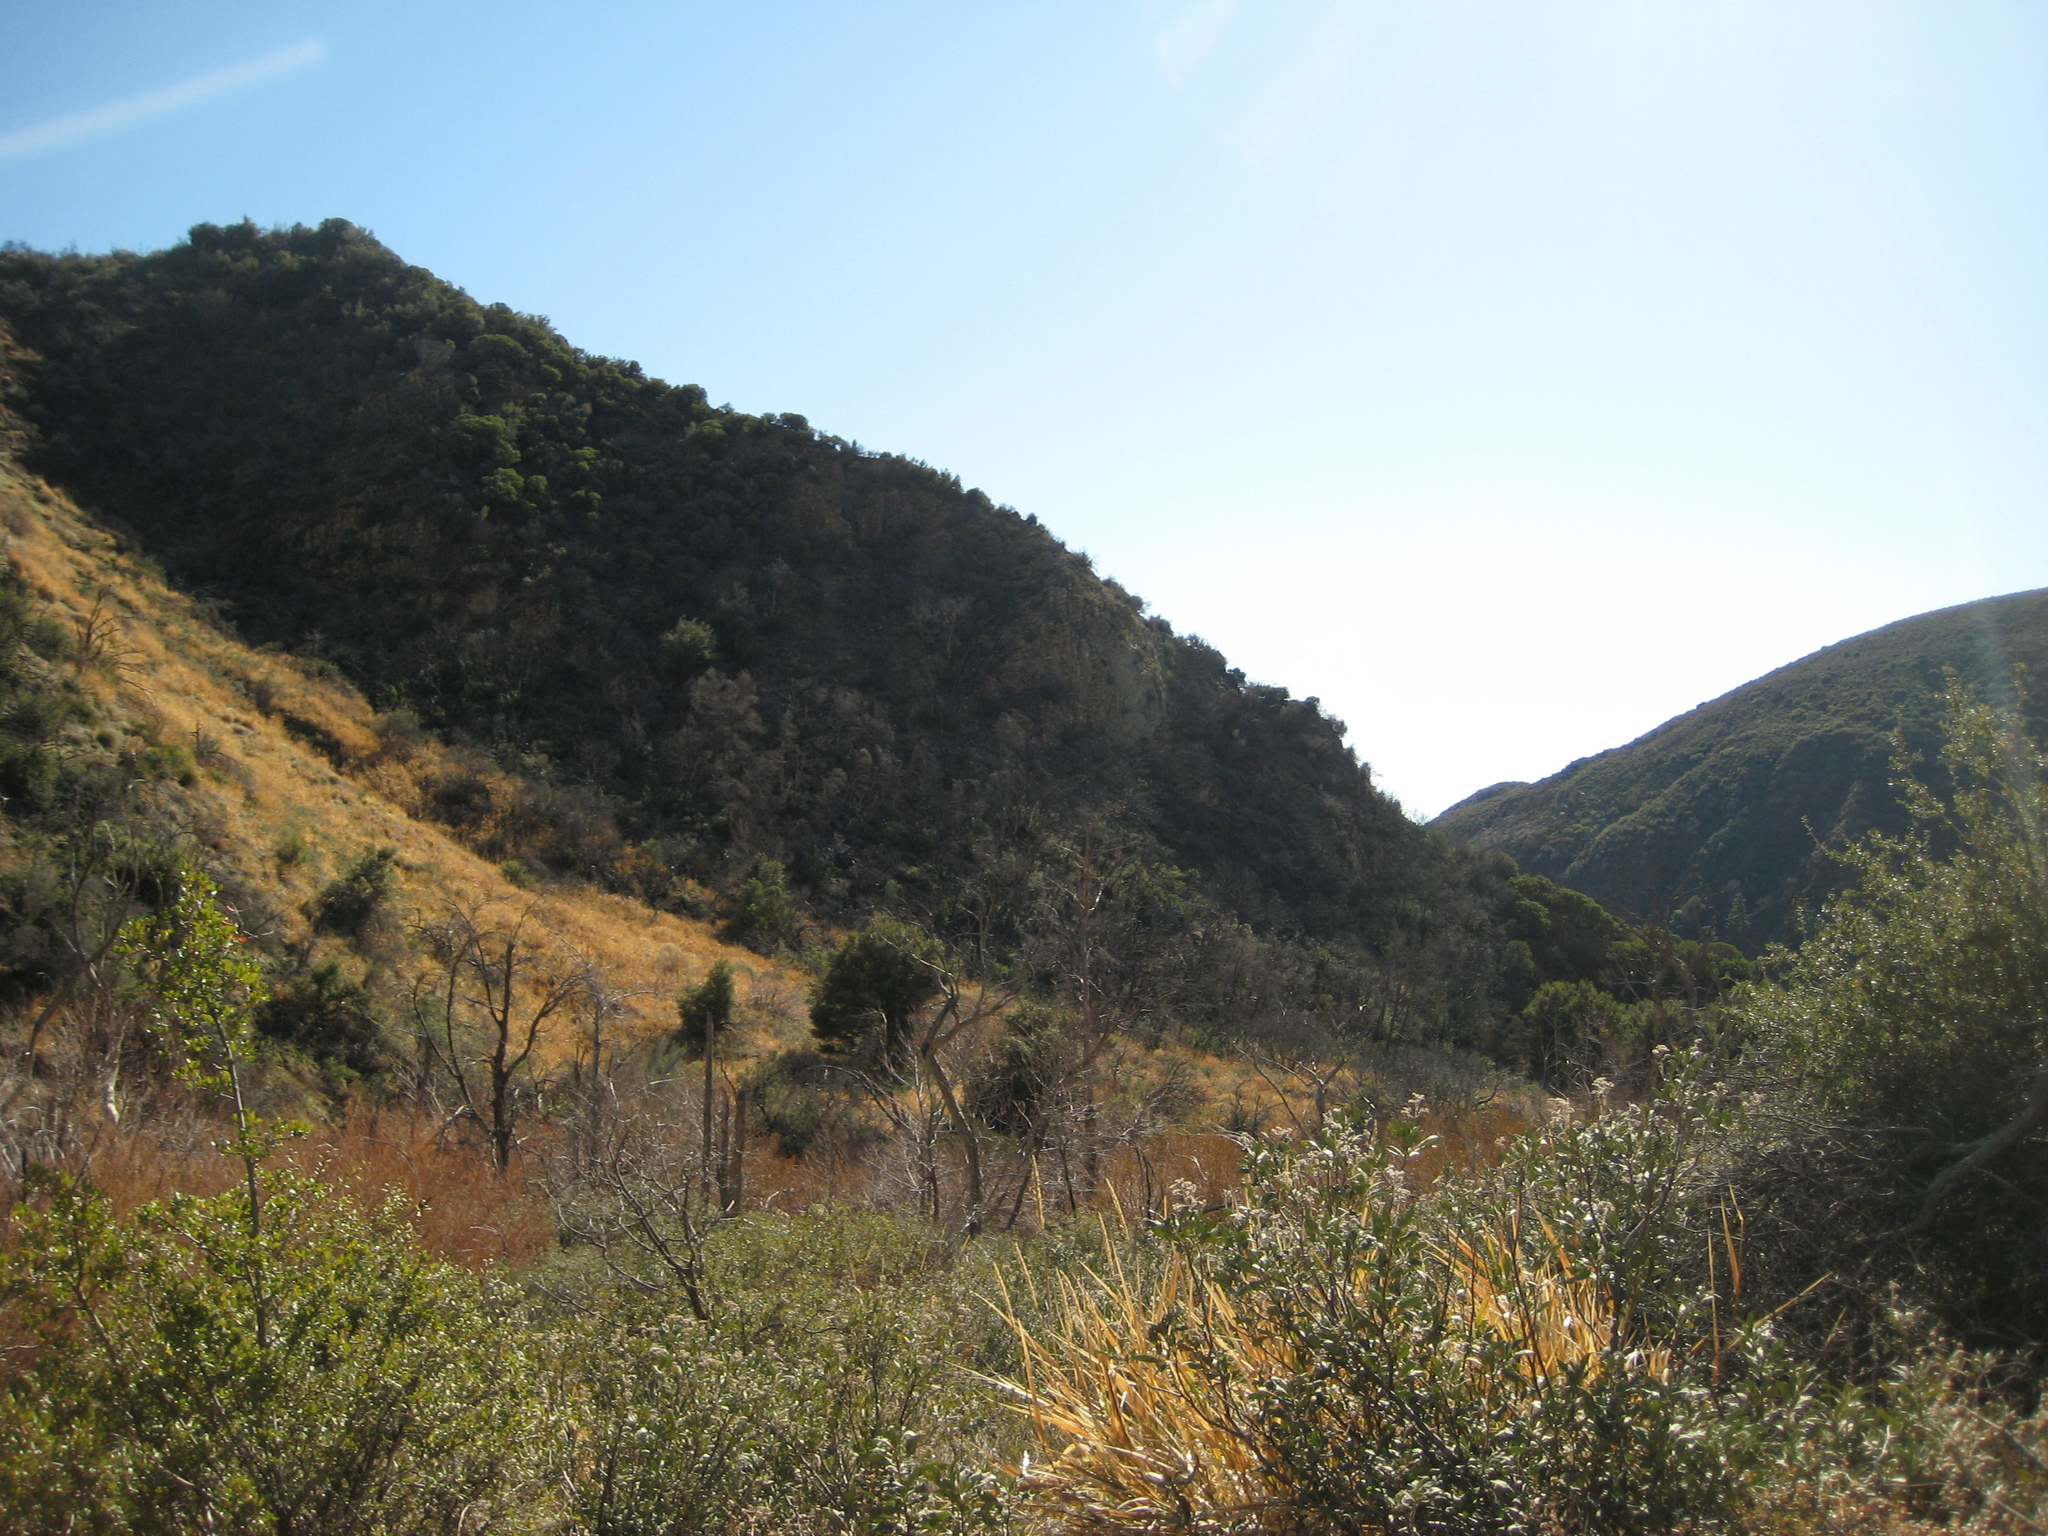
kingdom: Plantae
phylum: Tracheophyta
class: Liliopsida
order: Poales
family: Poaceae
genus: Leymus
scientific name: Leymus condensatus
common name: Giant wild rye
